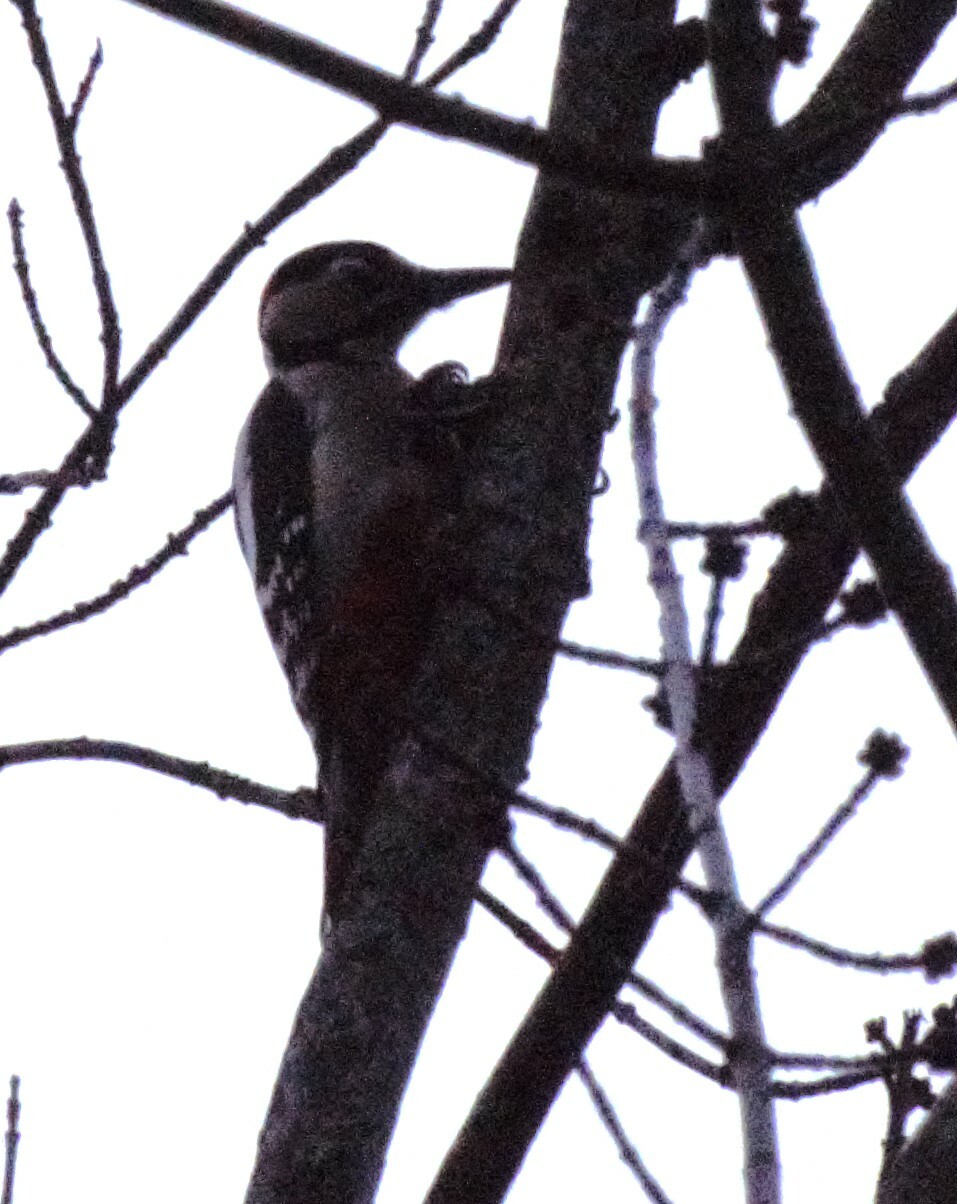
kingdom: Animalia
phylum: Chordata
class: Aves
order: Piciformes
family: Picidae
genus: Dendrocopos
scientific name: Dendrocopos major
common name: Great spotted woodpecker
